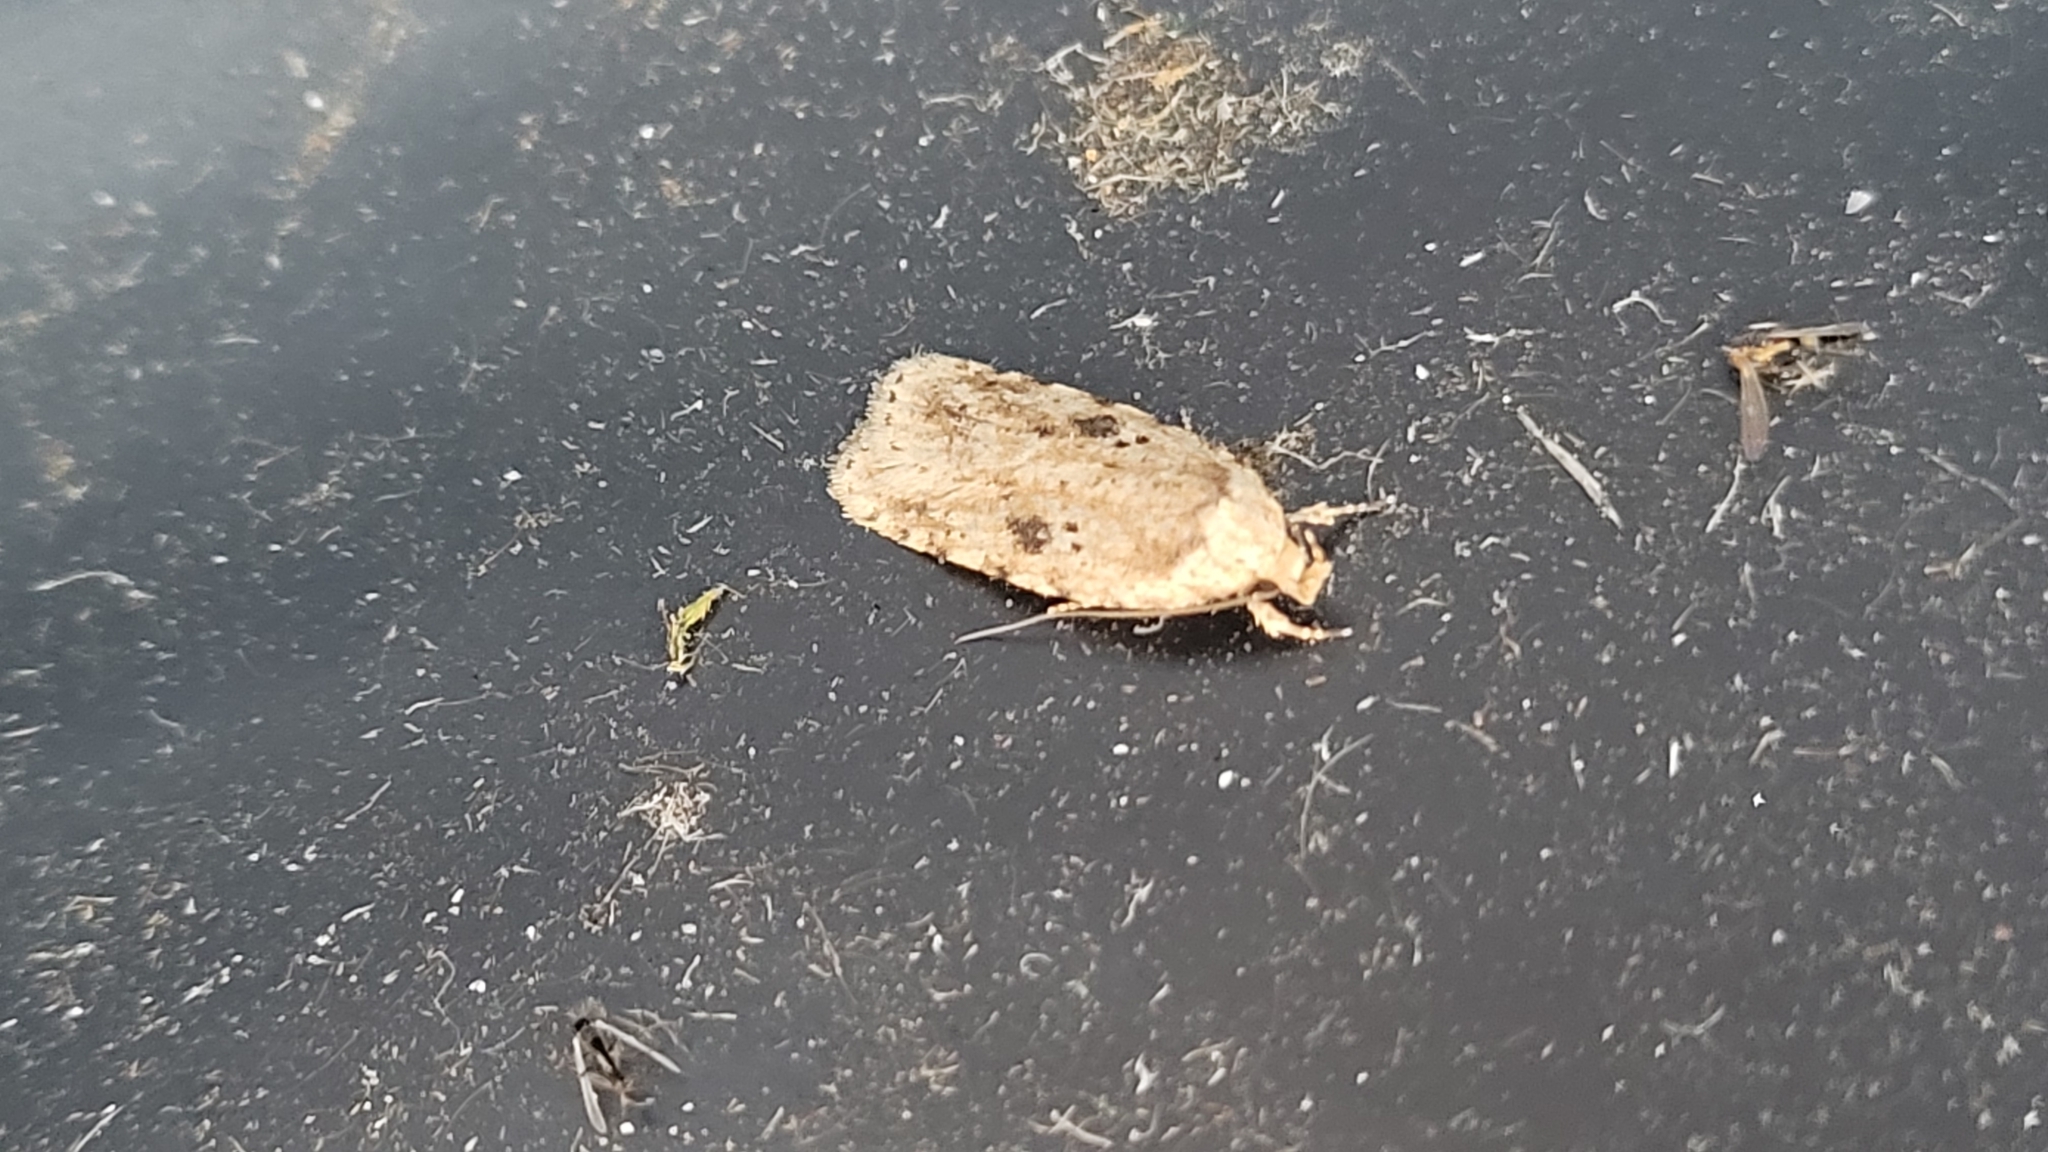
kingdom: Animalia
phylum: Arthropoda
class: Insecta
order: Lepidoptera
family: Depressariidae
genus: Agonopterix
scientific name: Agonopterix arenella
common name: Brindled flat-body
